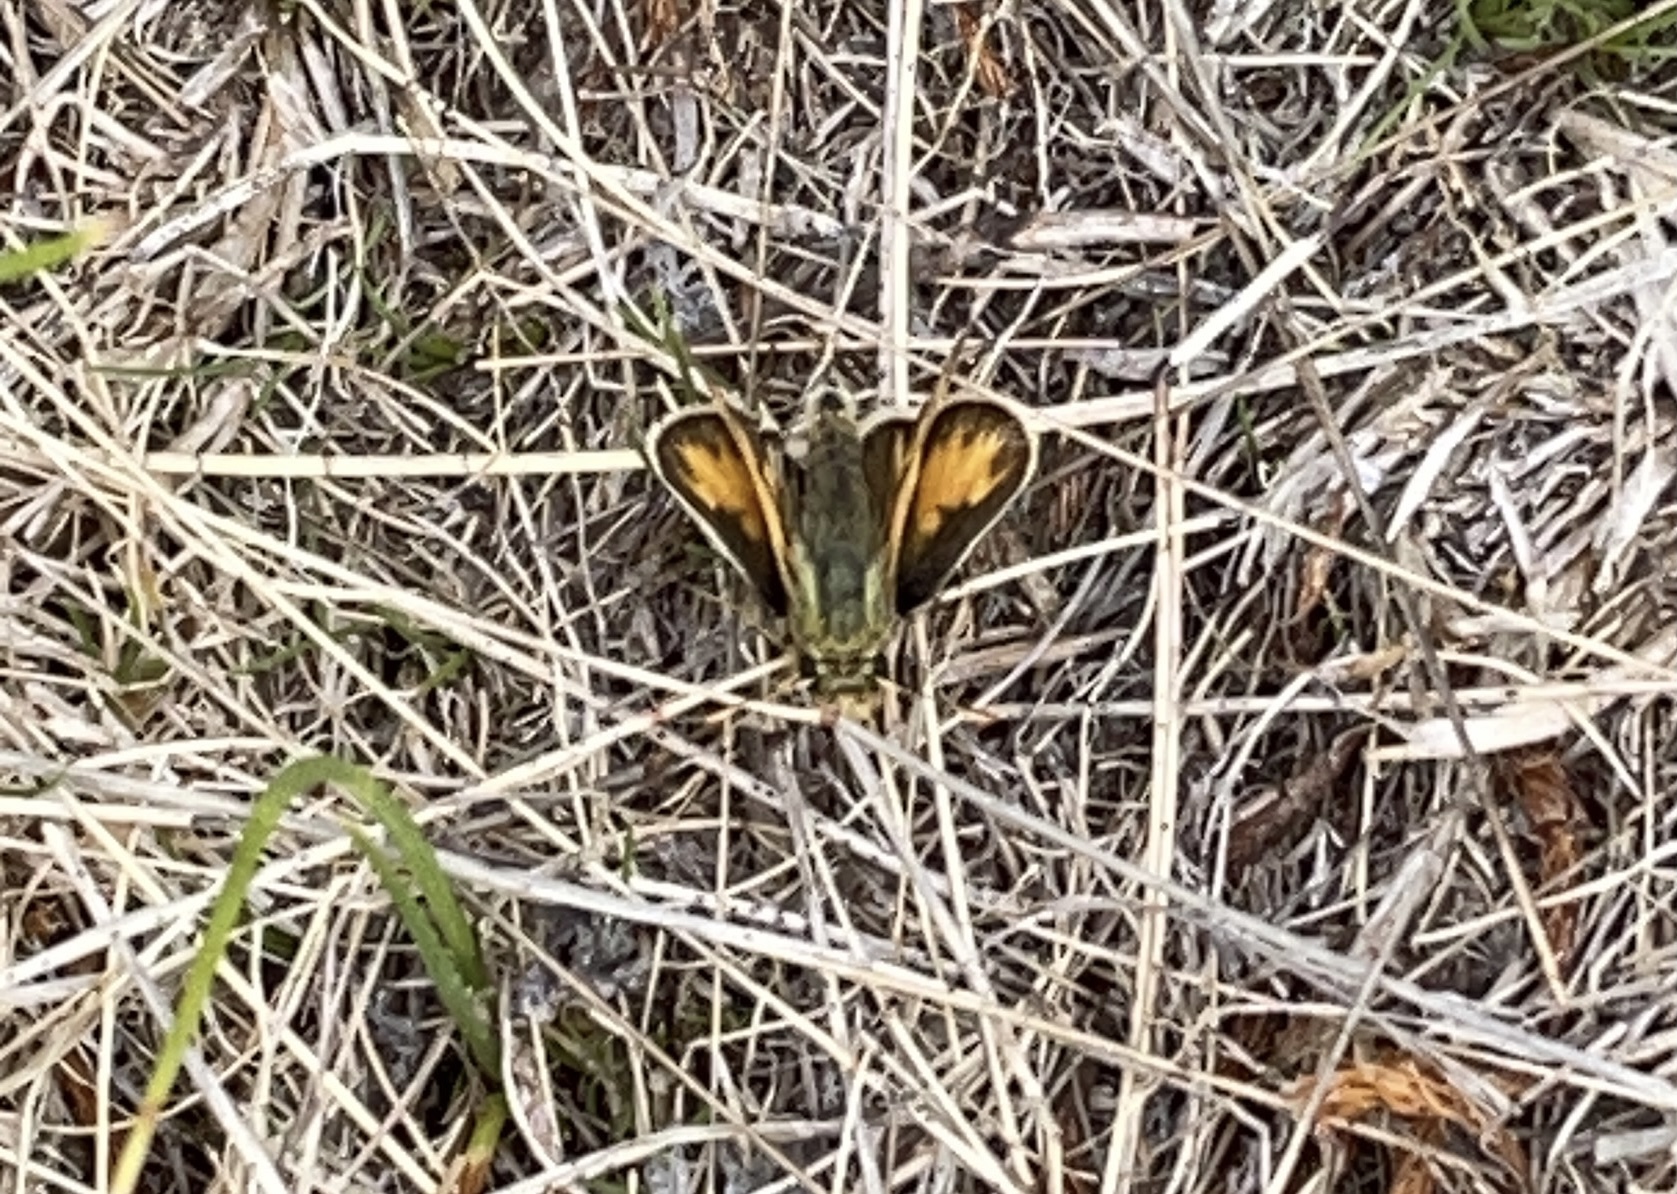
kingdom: Animalia
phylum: Arthropoda
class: Insecta
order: Lepidoptera
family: Hesperiidae
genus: Polites
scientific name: Polites sabuleti
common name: Sandhill skipper
